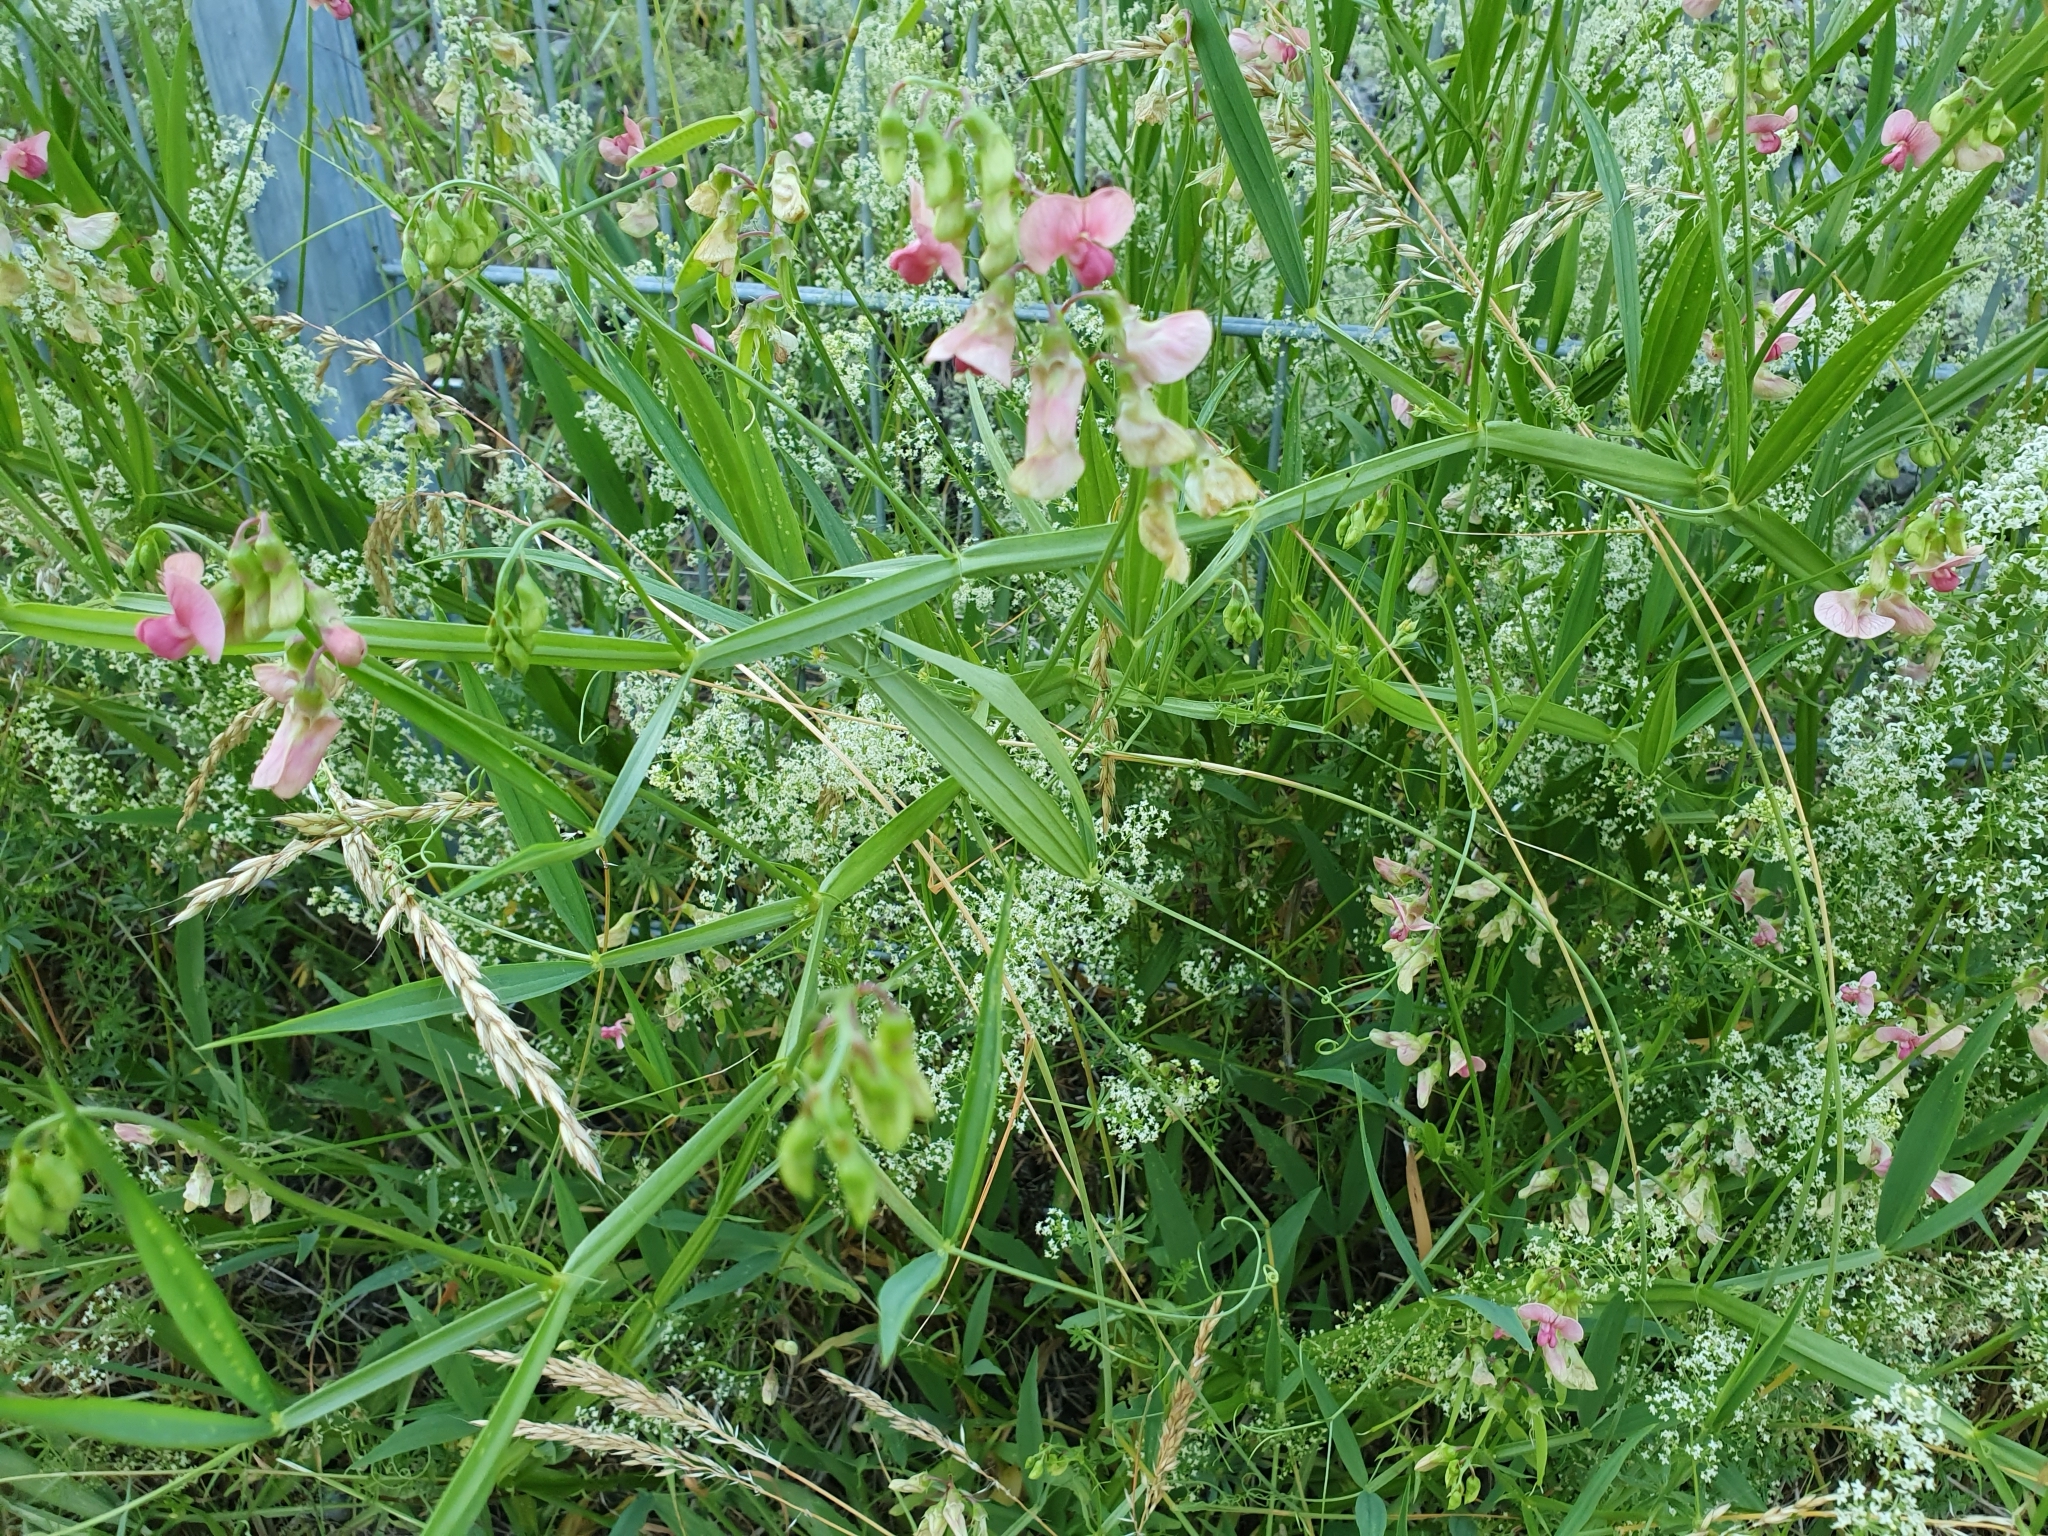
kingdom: Plantae
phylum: Tracheophyta
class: Magnoliopsida
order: Fabales
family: Fabaceae
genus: Lathyrus
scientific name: Lathyrus sylvestris
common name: Flat pea
